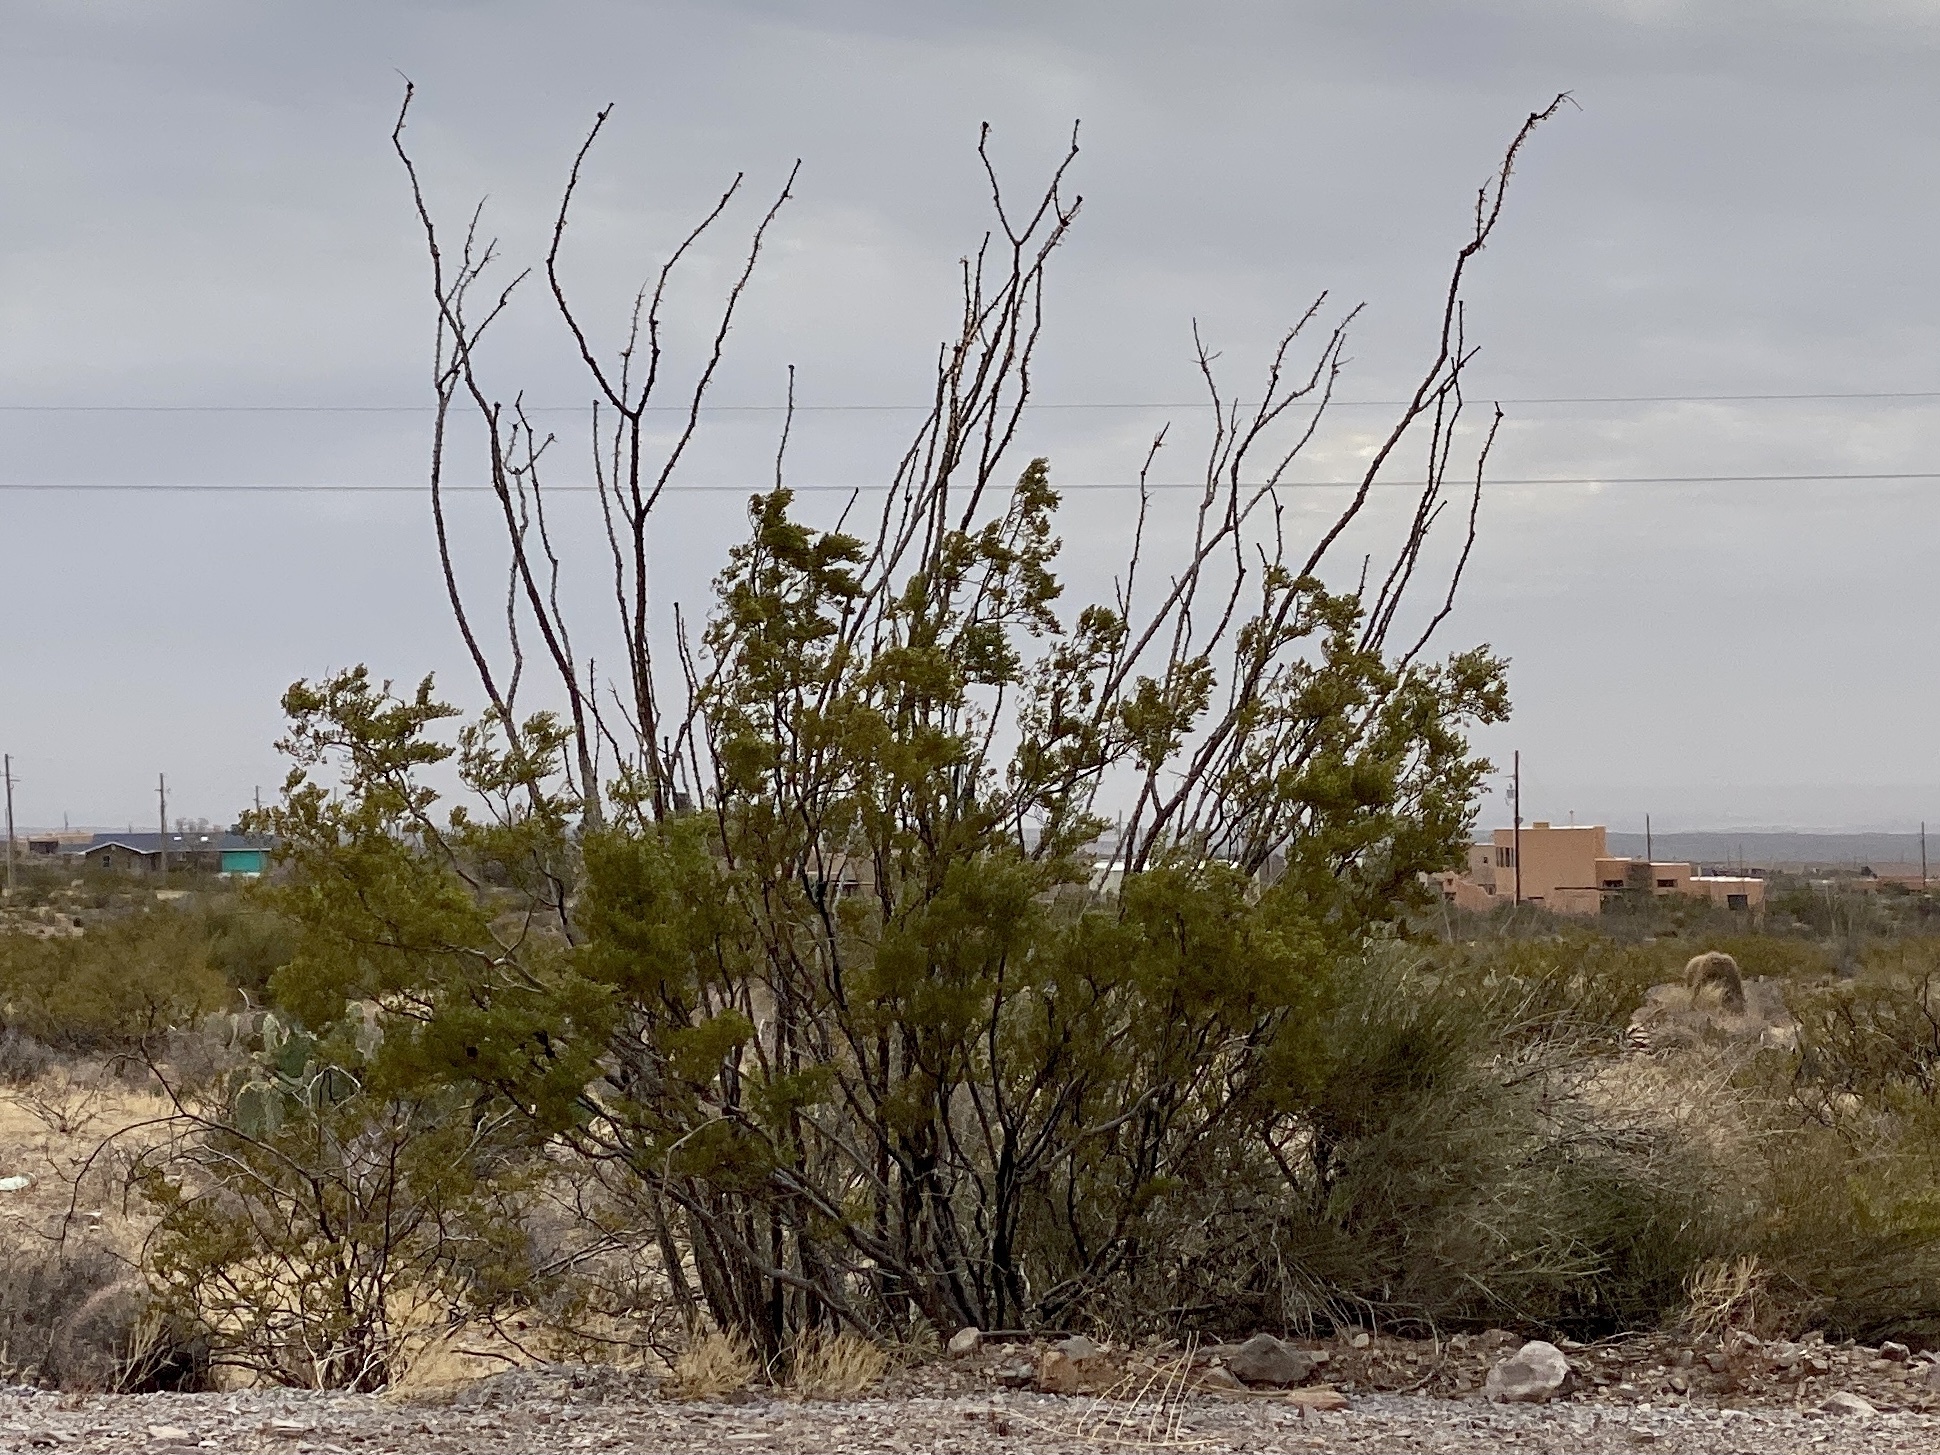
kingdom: Plantae
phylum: Tracheophyta
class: Magnoliopsida
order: Ericales
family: Fouquieriaceae
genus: Fouquieria
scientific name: Fouquieria splendens
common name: Vine-cactus
